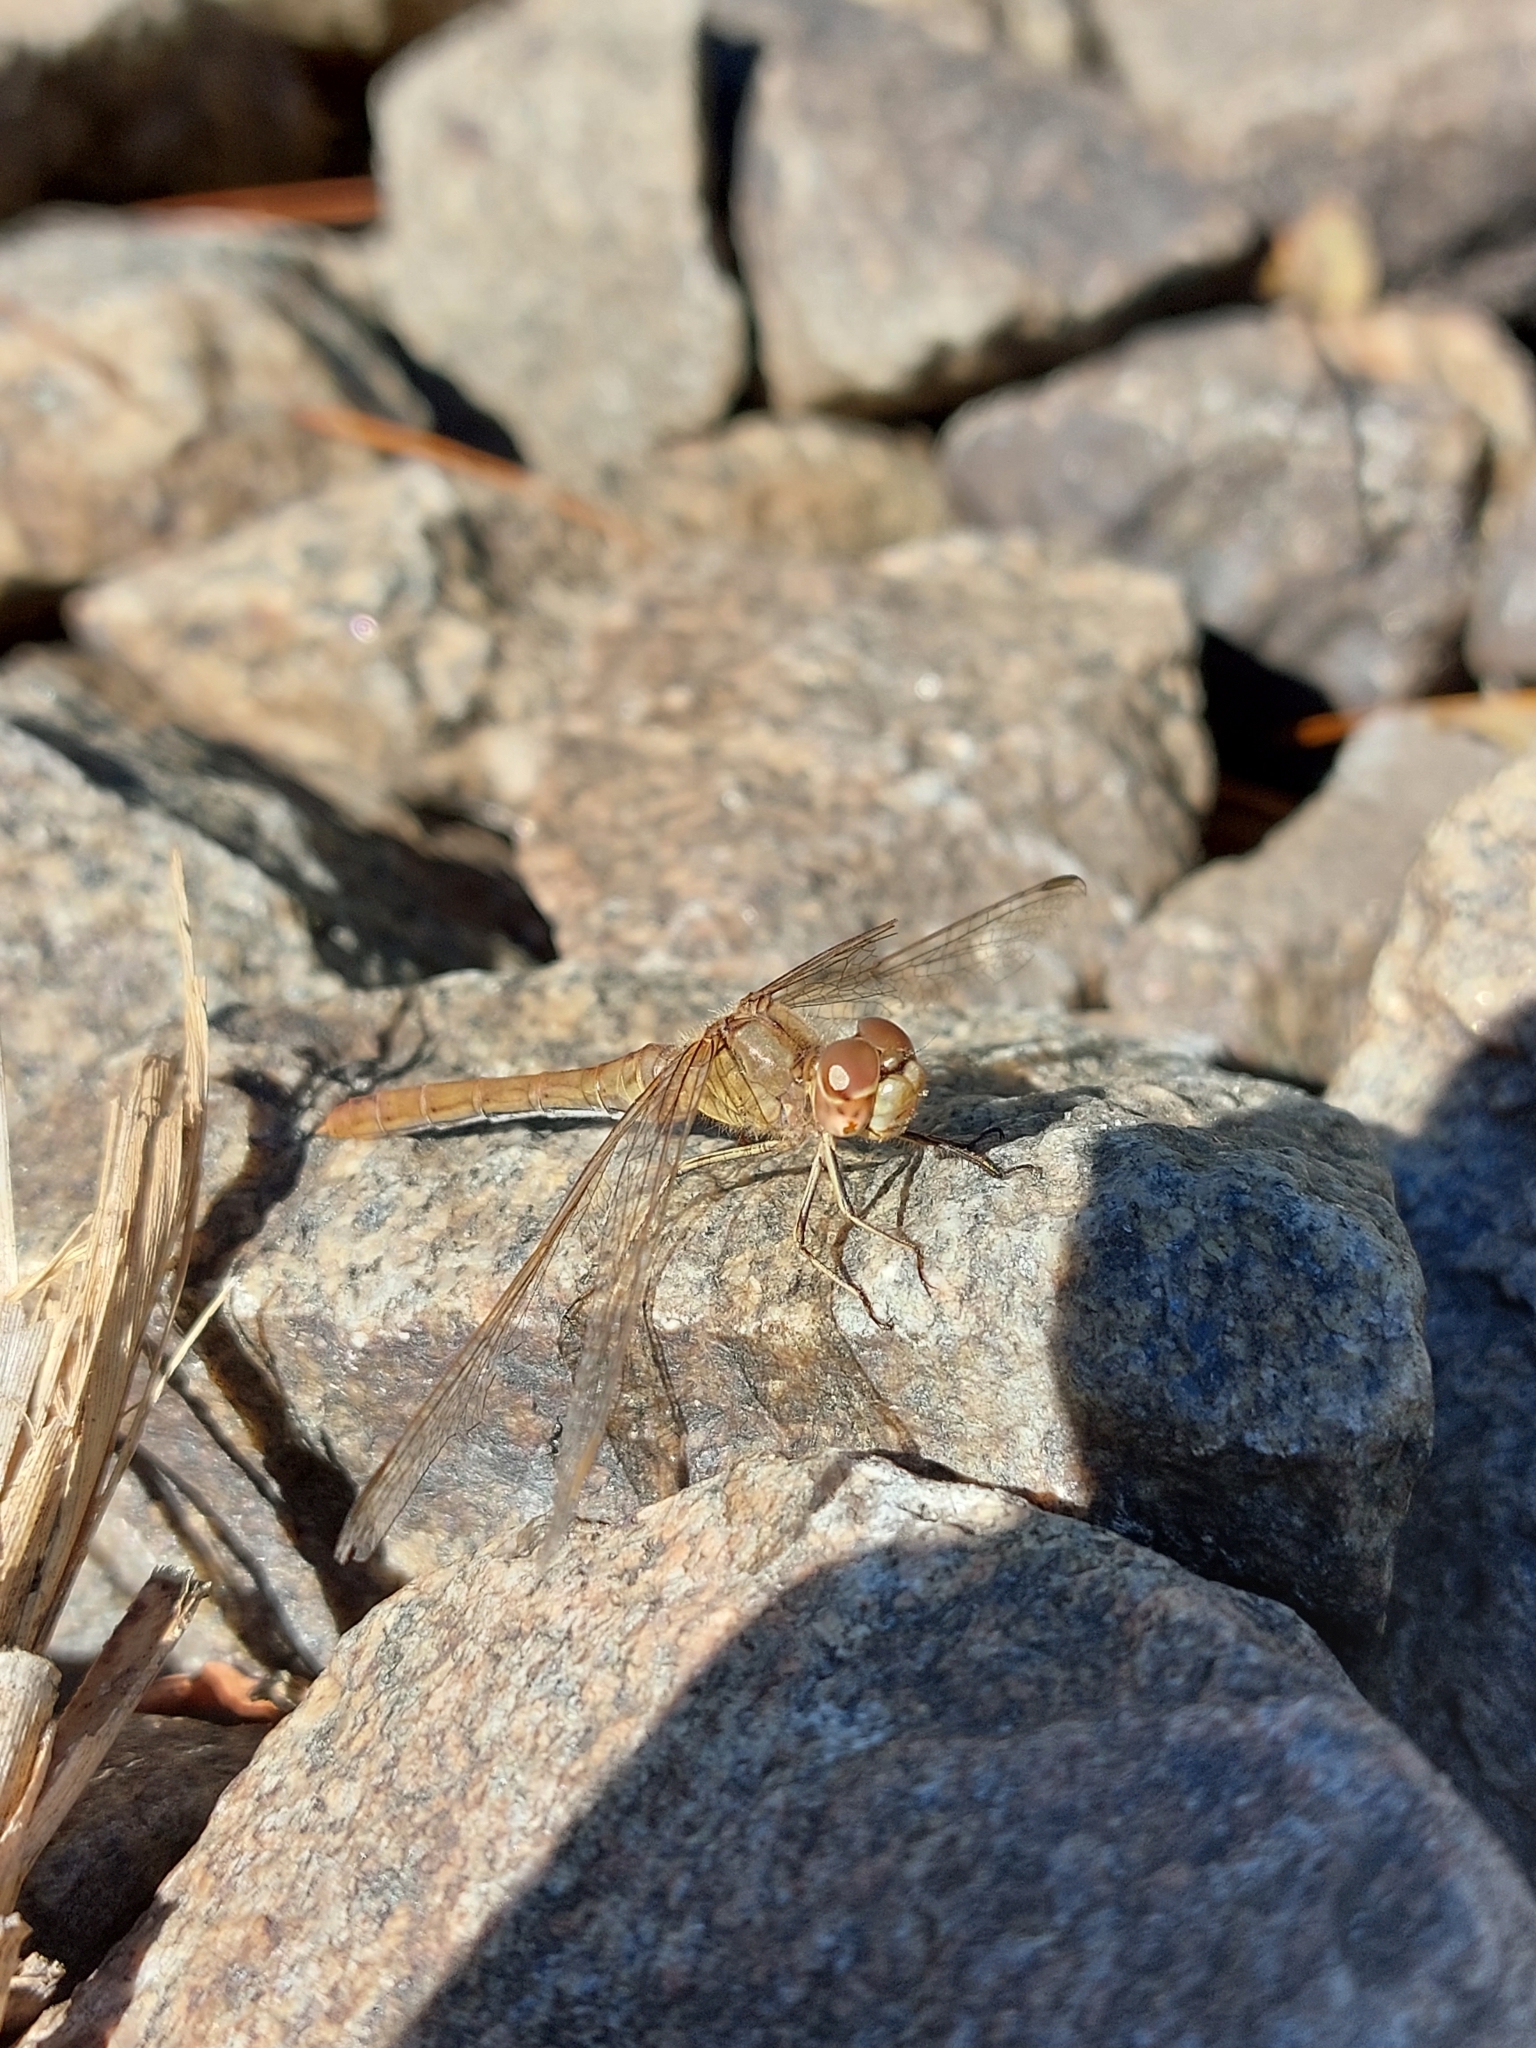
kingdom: Animalia
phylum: Arthropoda
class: Insecta
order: Odonata
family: Libellulidae
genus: Sympetrum
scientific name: Sympetrum meridionale
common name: Southern darter
